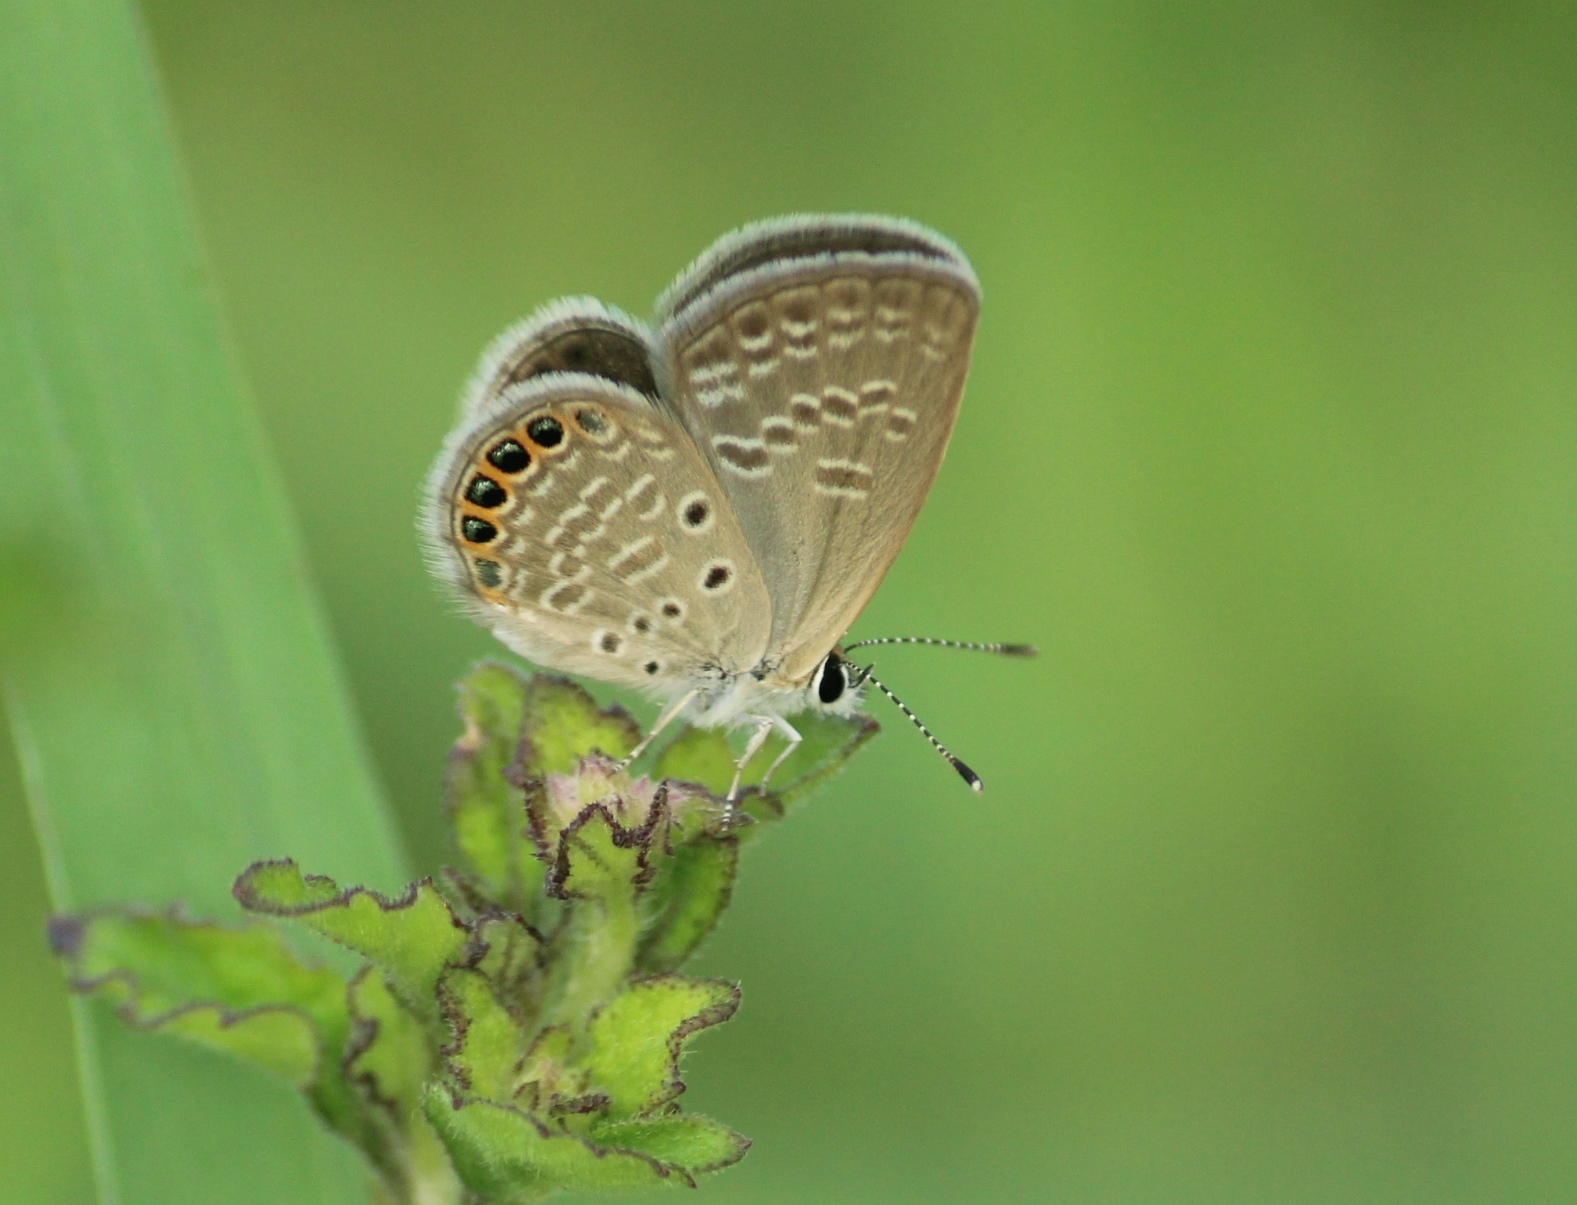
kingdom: Animalia
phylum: Arthropoda
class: Insecta
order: Lepidoptera
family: Lycaenidae
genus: Freyeria
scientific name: Freyeria putli
